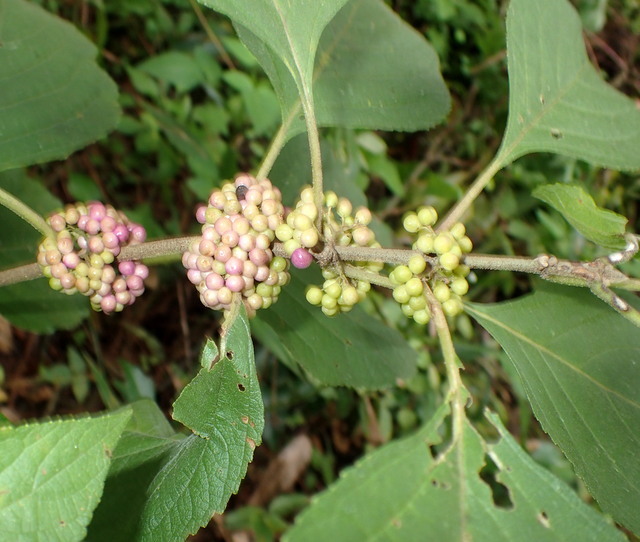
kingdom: Plantae
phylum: Tracheophyta
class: Magnoliopsida
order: Lamiales
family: Lamiaceae
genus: Callicarpa
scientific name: Callicarpa americana
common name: American beautyberry
